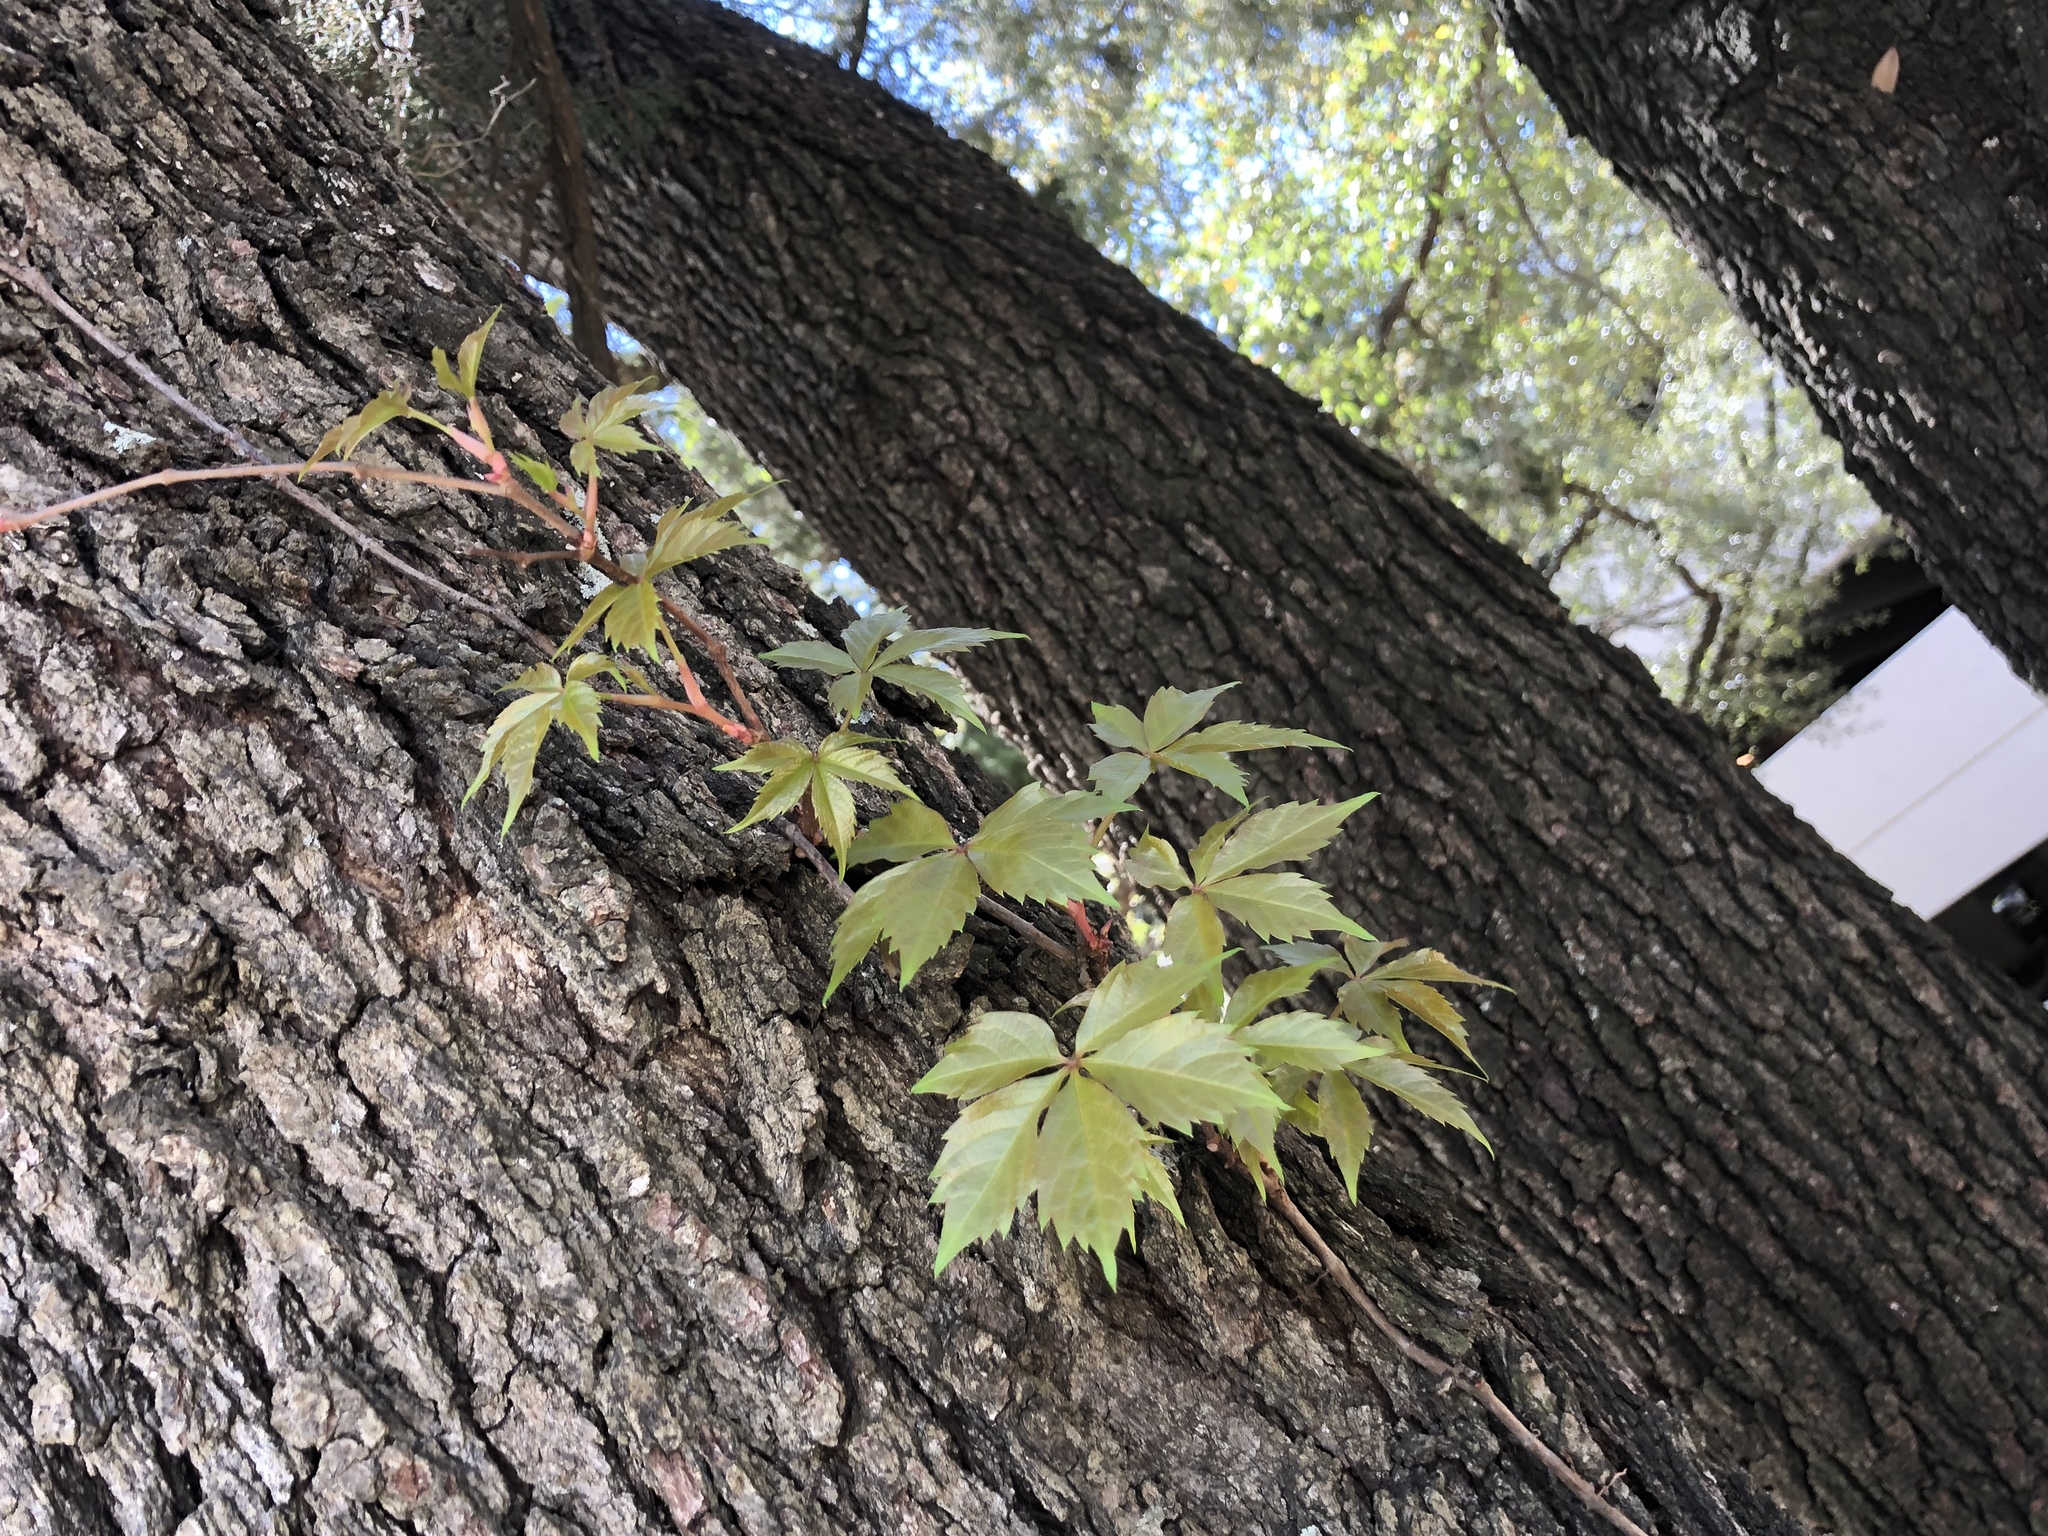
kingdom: Plantae
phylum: Tracheophyta
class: Magnoliopsida
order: Vitales
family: Vitaceae
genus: Parthenocissus
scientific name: Parthenocissus quinquefolia
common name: Virginia-creeper
